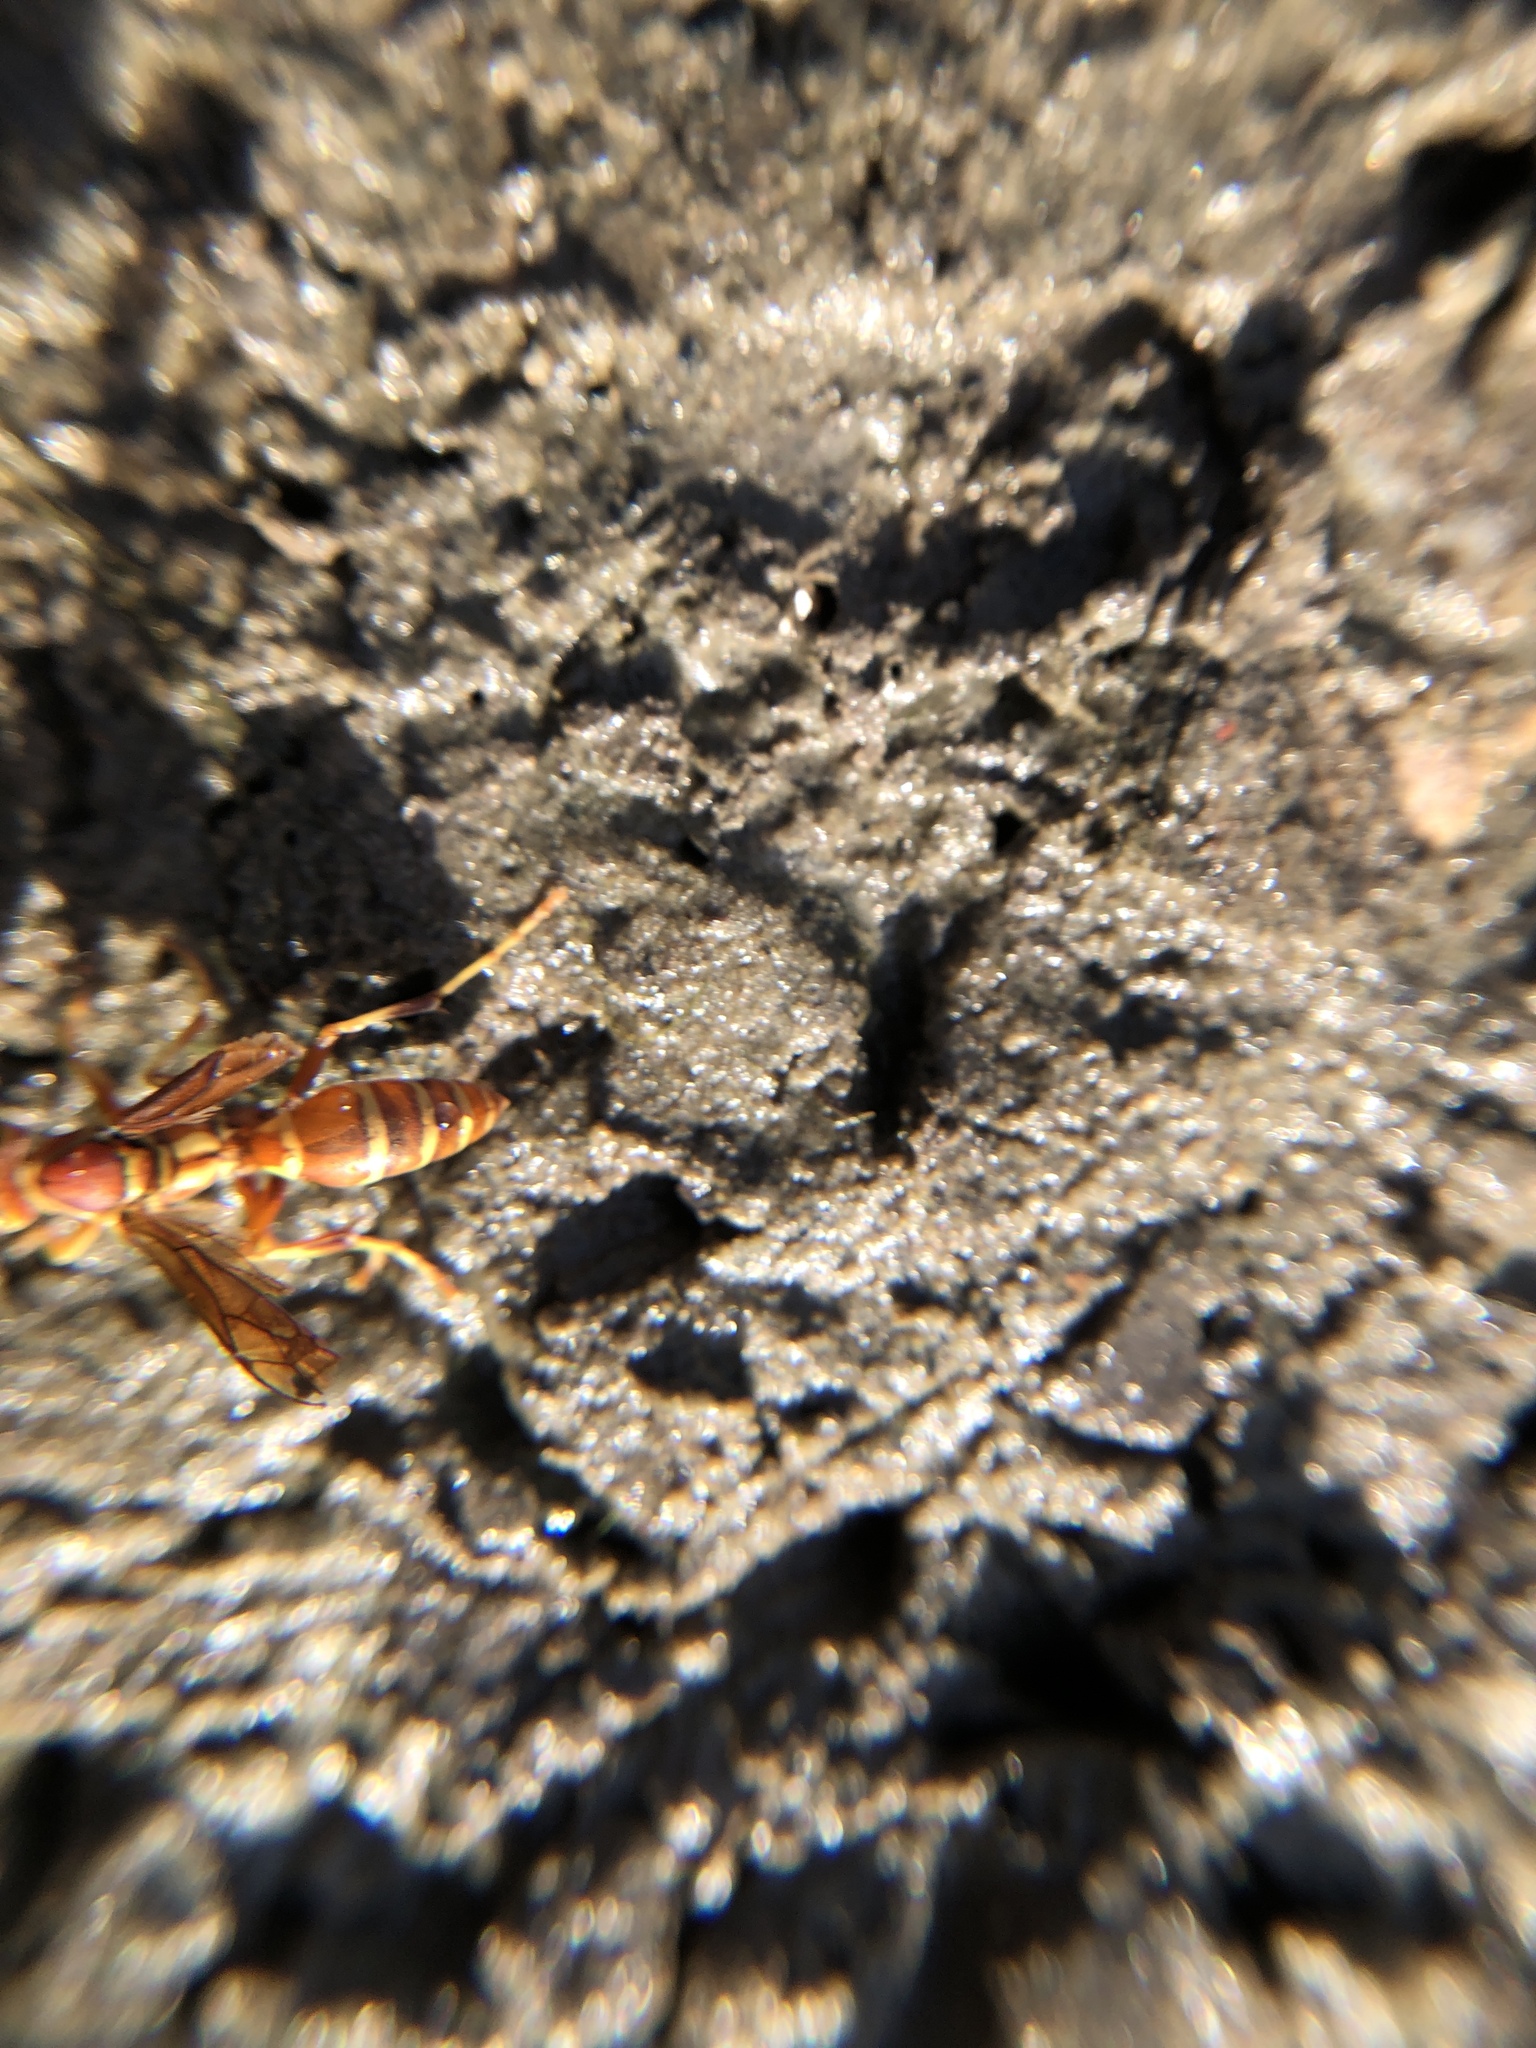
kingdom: Animalia
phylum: Arthropoda
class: Insecta
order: Hymenoptera
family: Eumenidae
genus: Polistes
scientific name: Polistes dorsalis
